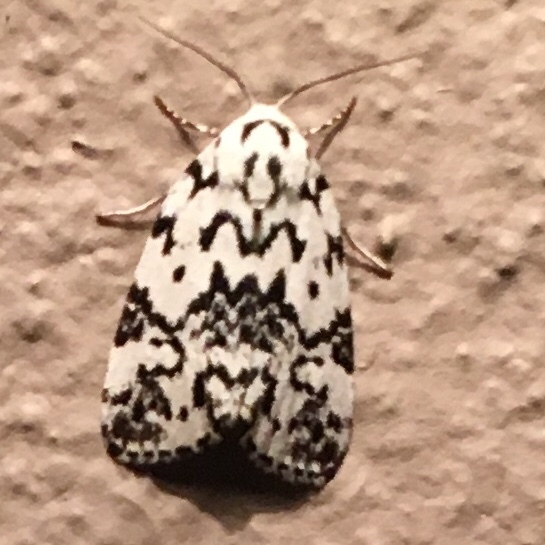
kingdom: Animalia
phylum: Arthropoda
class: Insecta
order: Lepidoptera
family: Noctuidae
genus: Polygrammate
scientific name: Polygrammate hebraeicum
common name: Hebrew moth
